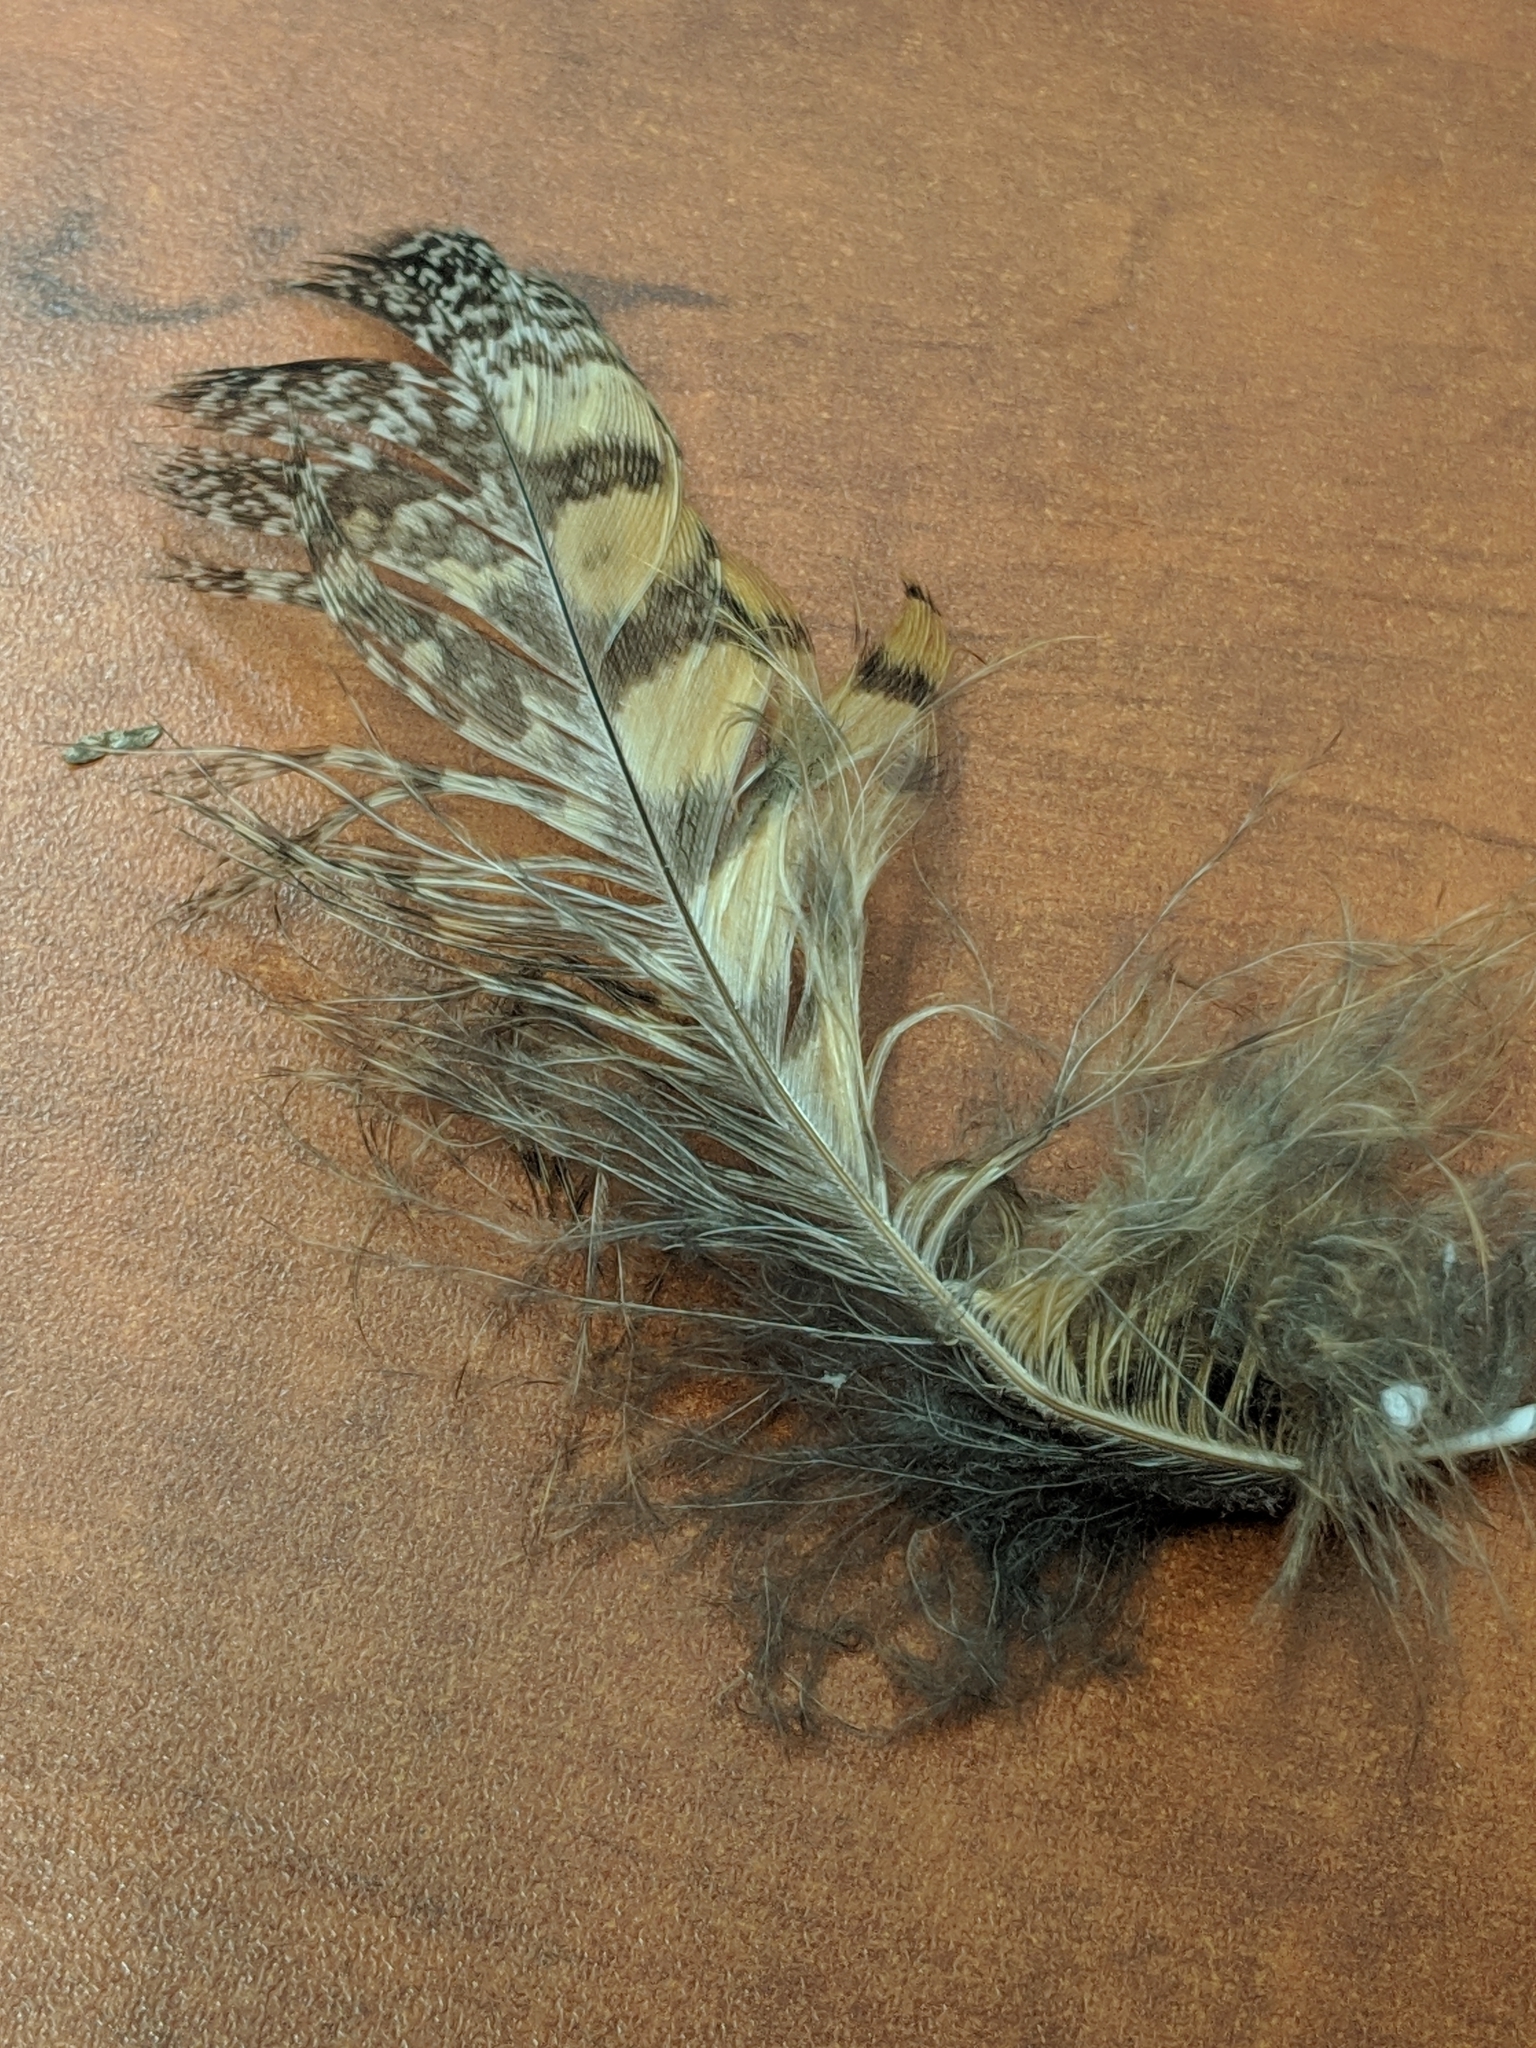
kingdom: Animalia
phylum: Chordata
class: Aves
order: Strigiformes
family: Strigidae
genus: Bubo
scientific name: Bubo virginianus
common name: Great horned owl
